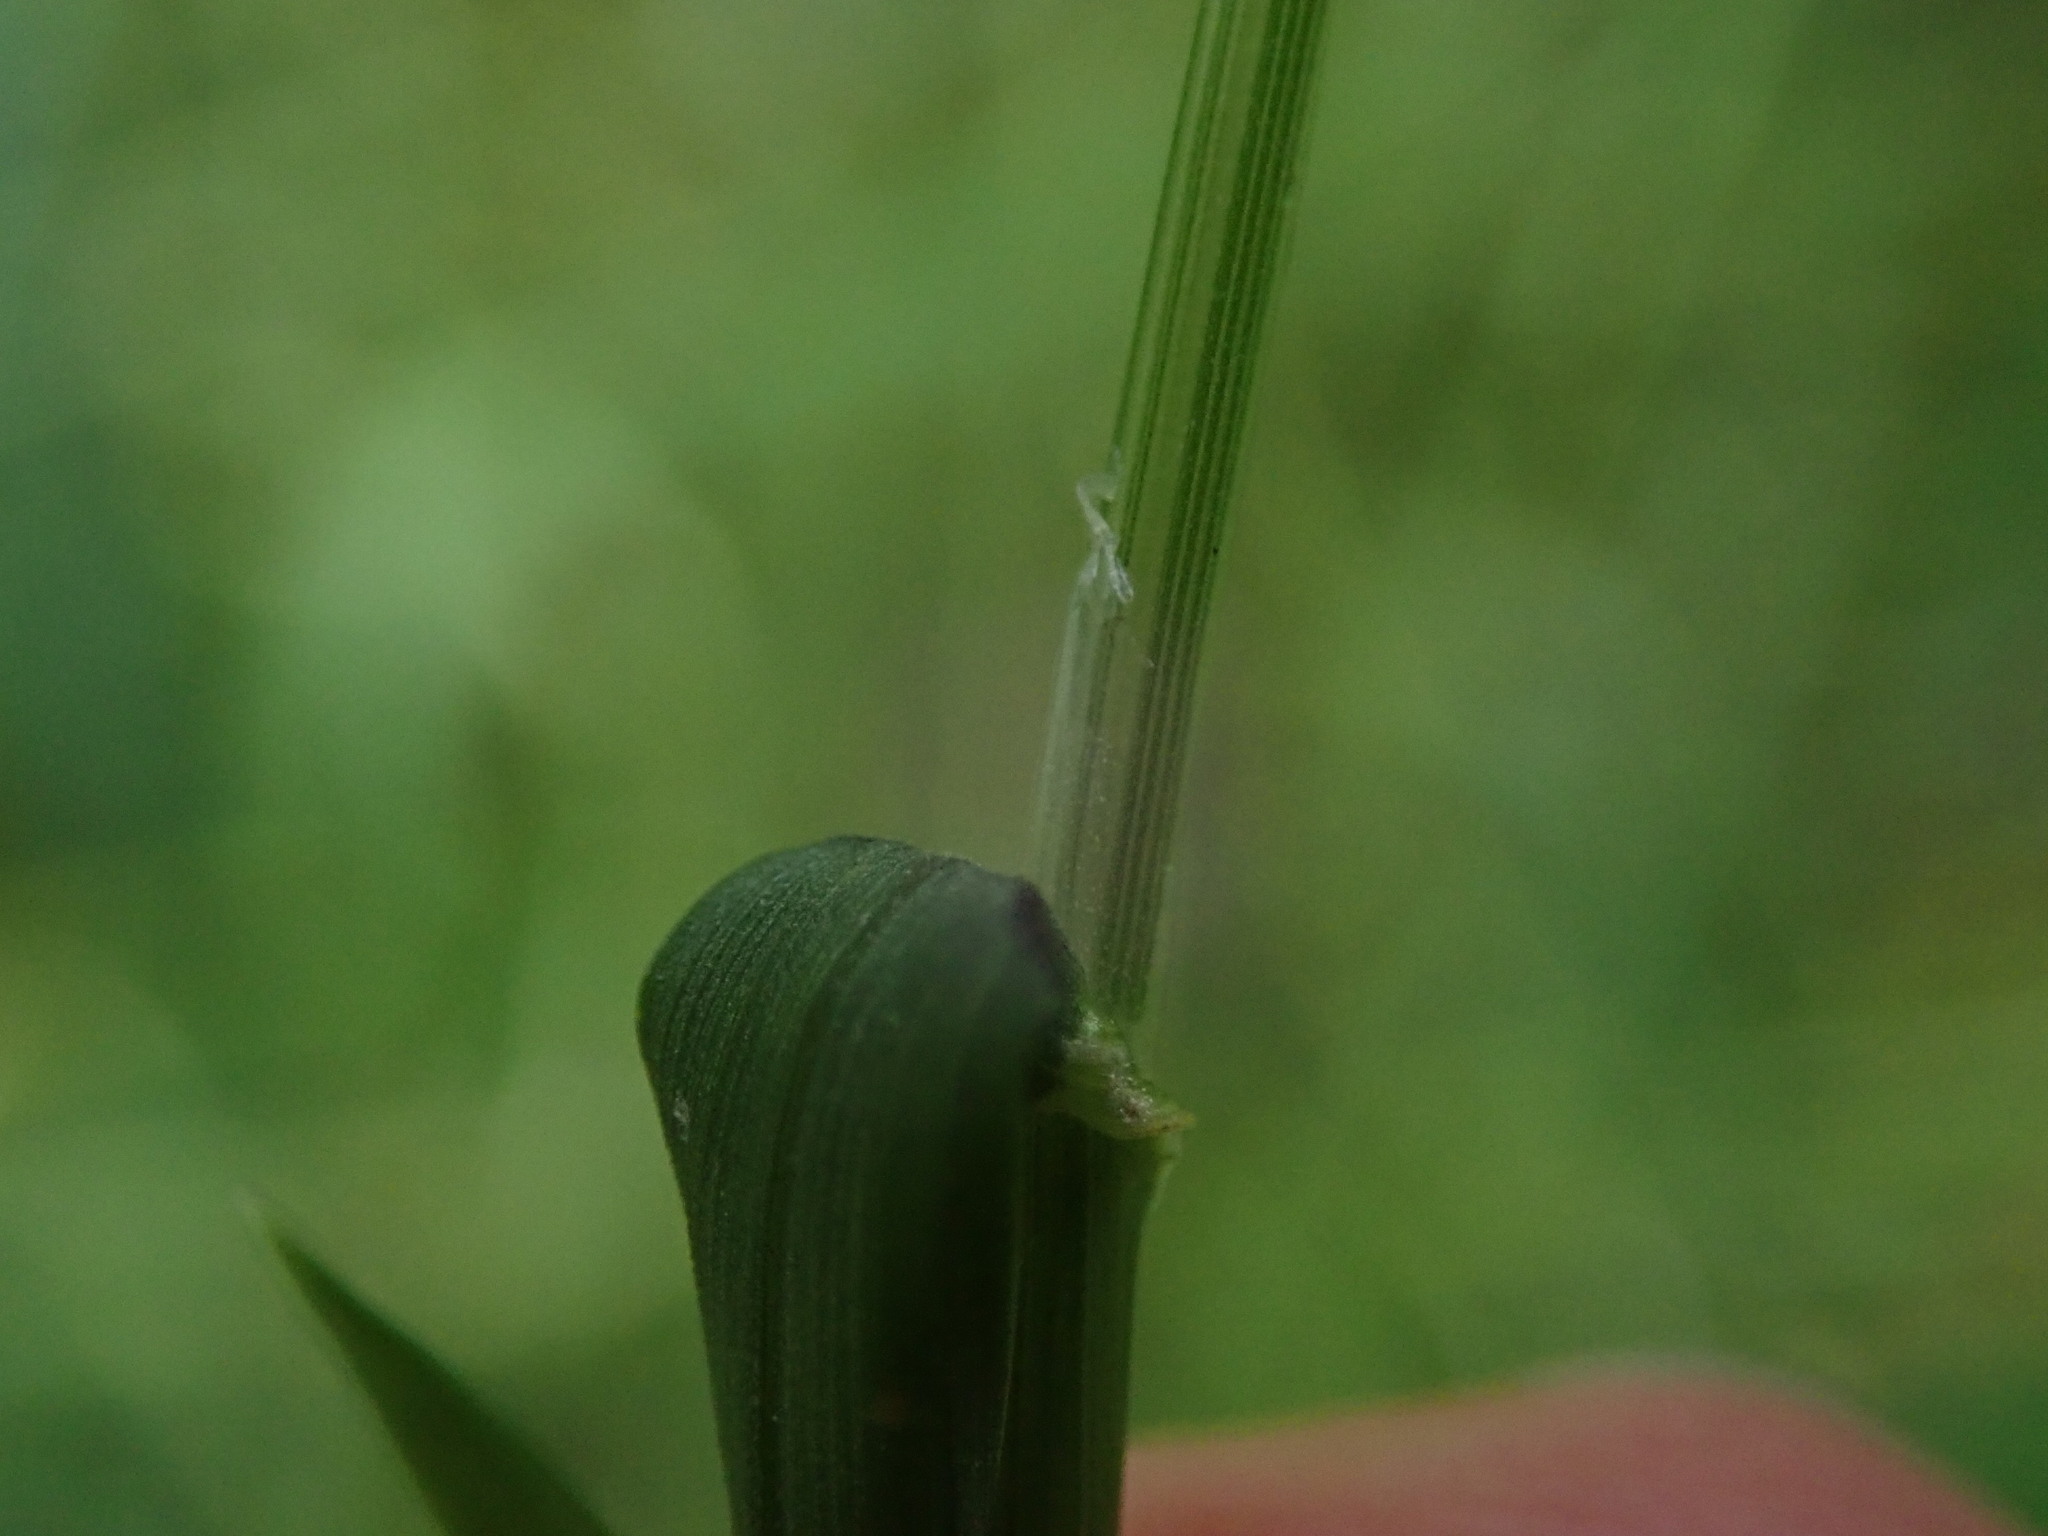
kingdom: Plantae
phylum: Tracheophyta
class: Liliopsida
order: Poales
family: Poaceae
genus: Poa
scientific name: Poa trivialis
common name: Rough bluegrass
